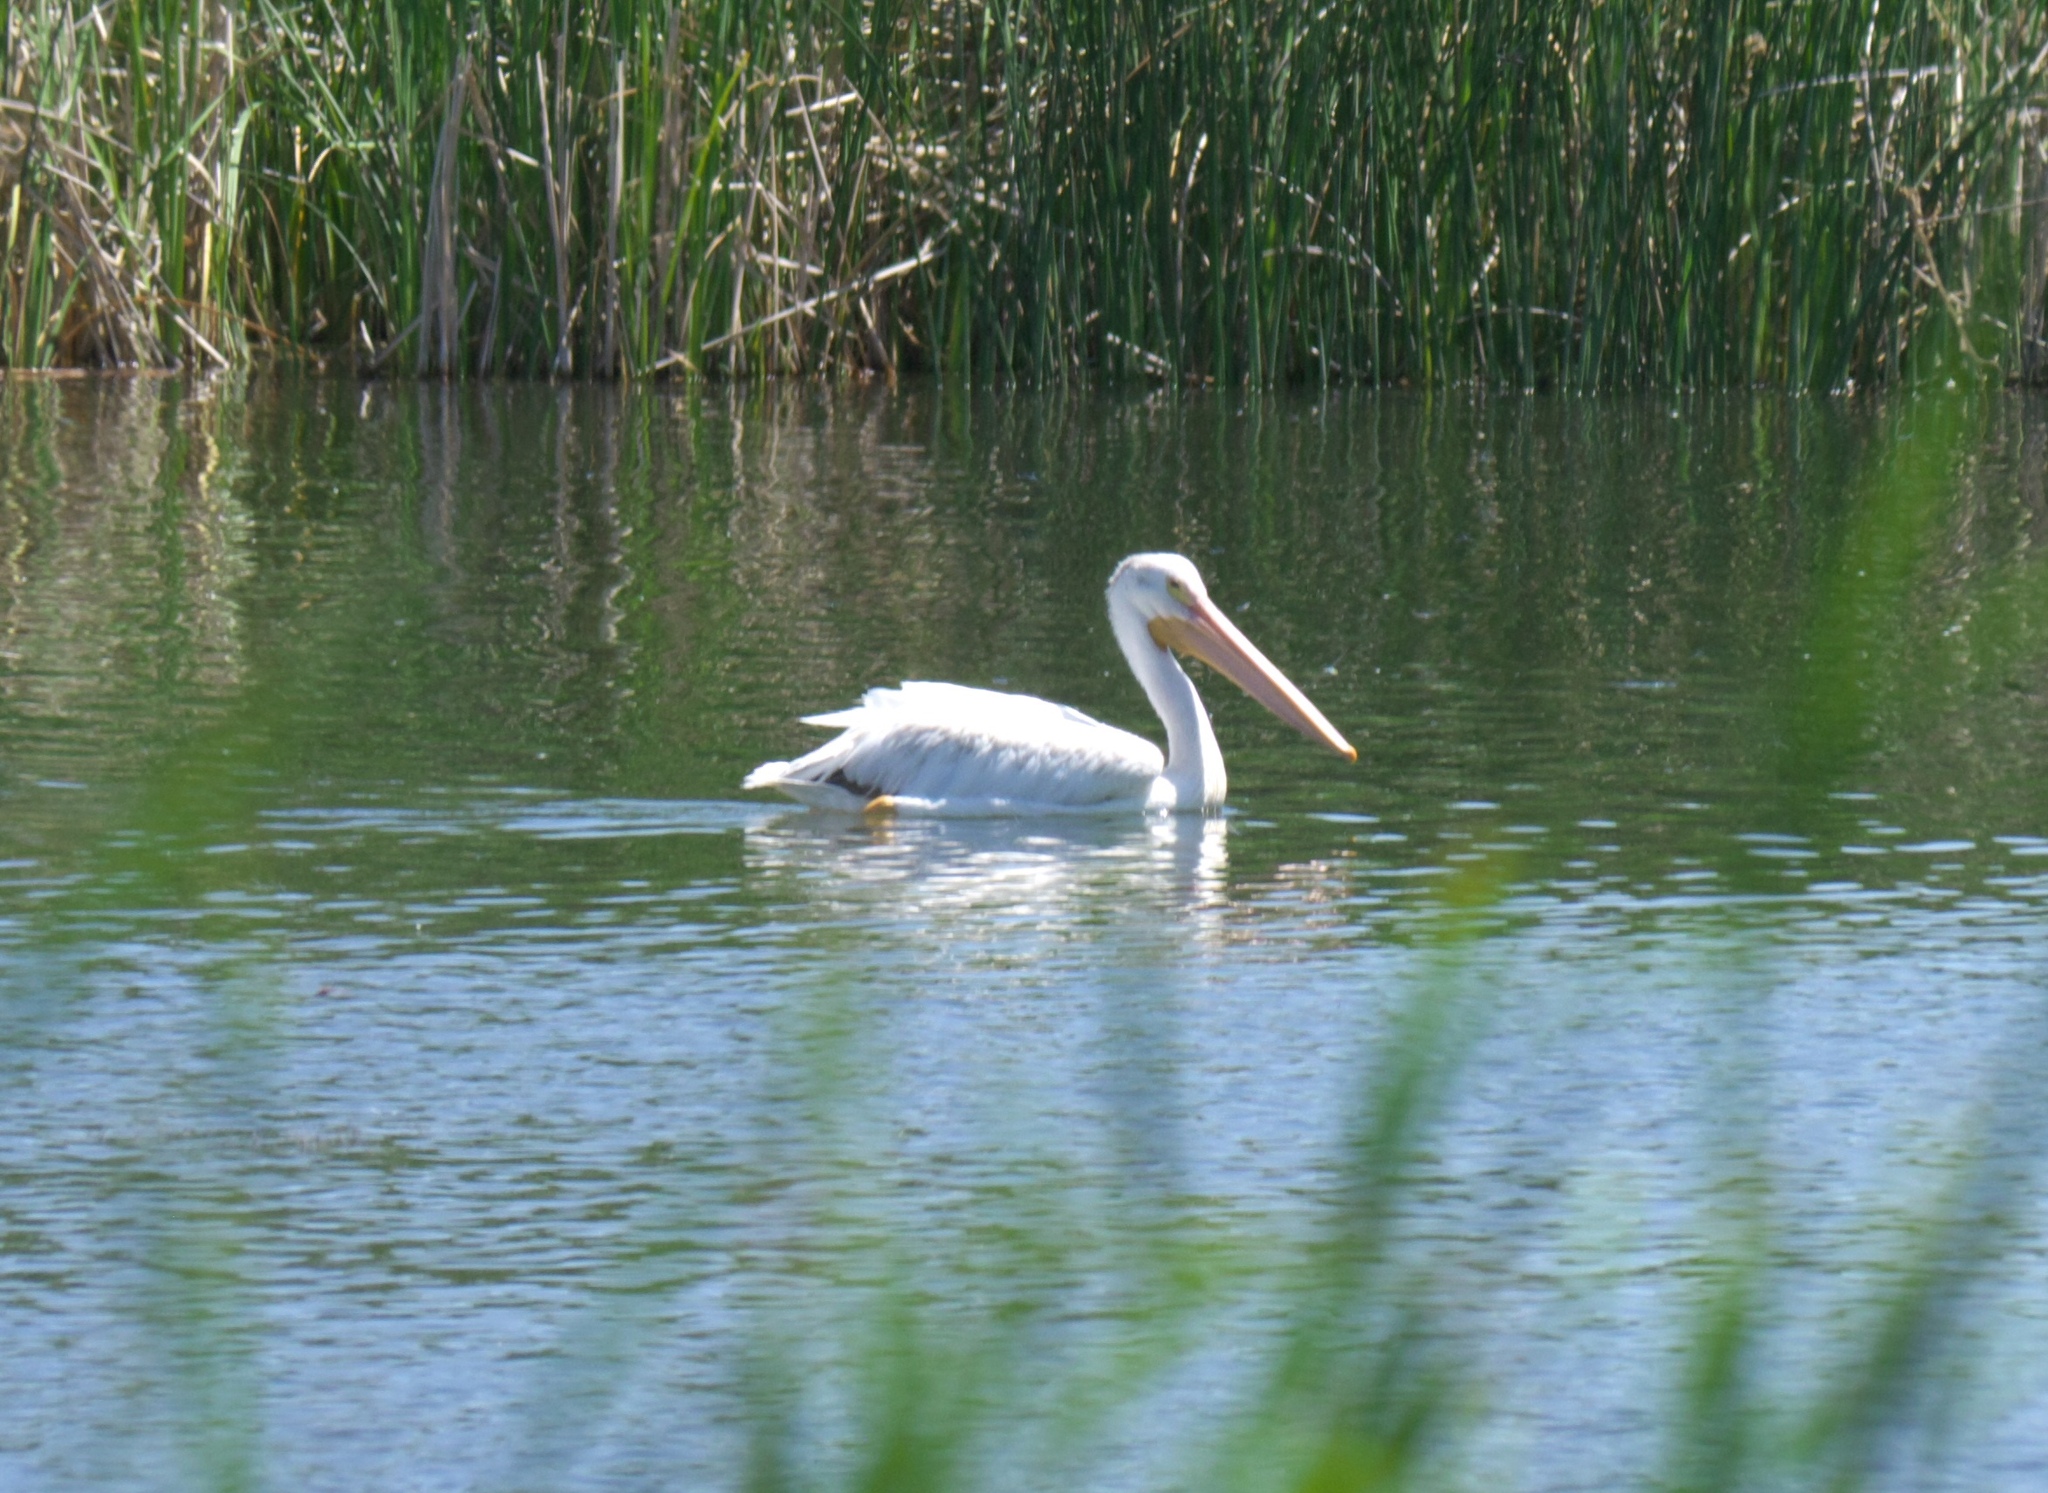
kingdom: Animalia
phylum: Chordata
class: Aves
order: Pelecaniformes
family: Pelecanidae
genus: Pelecanus
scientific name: Pelecanus erythrorhynchos
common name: American white pelican
